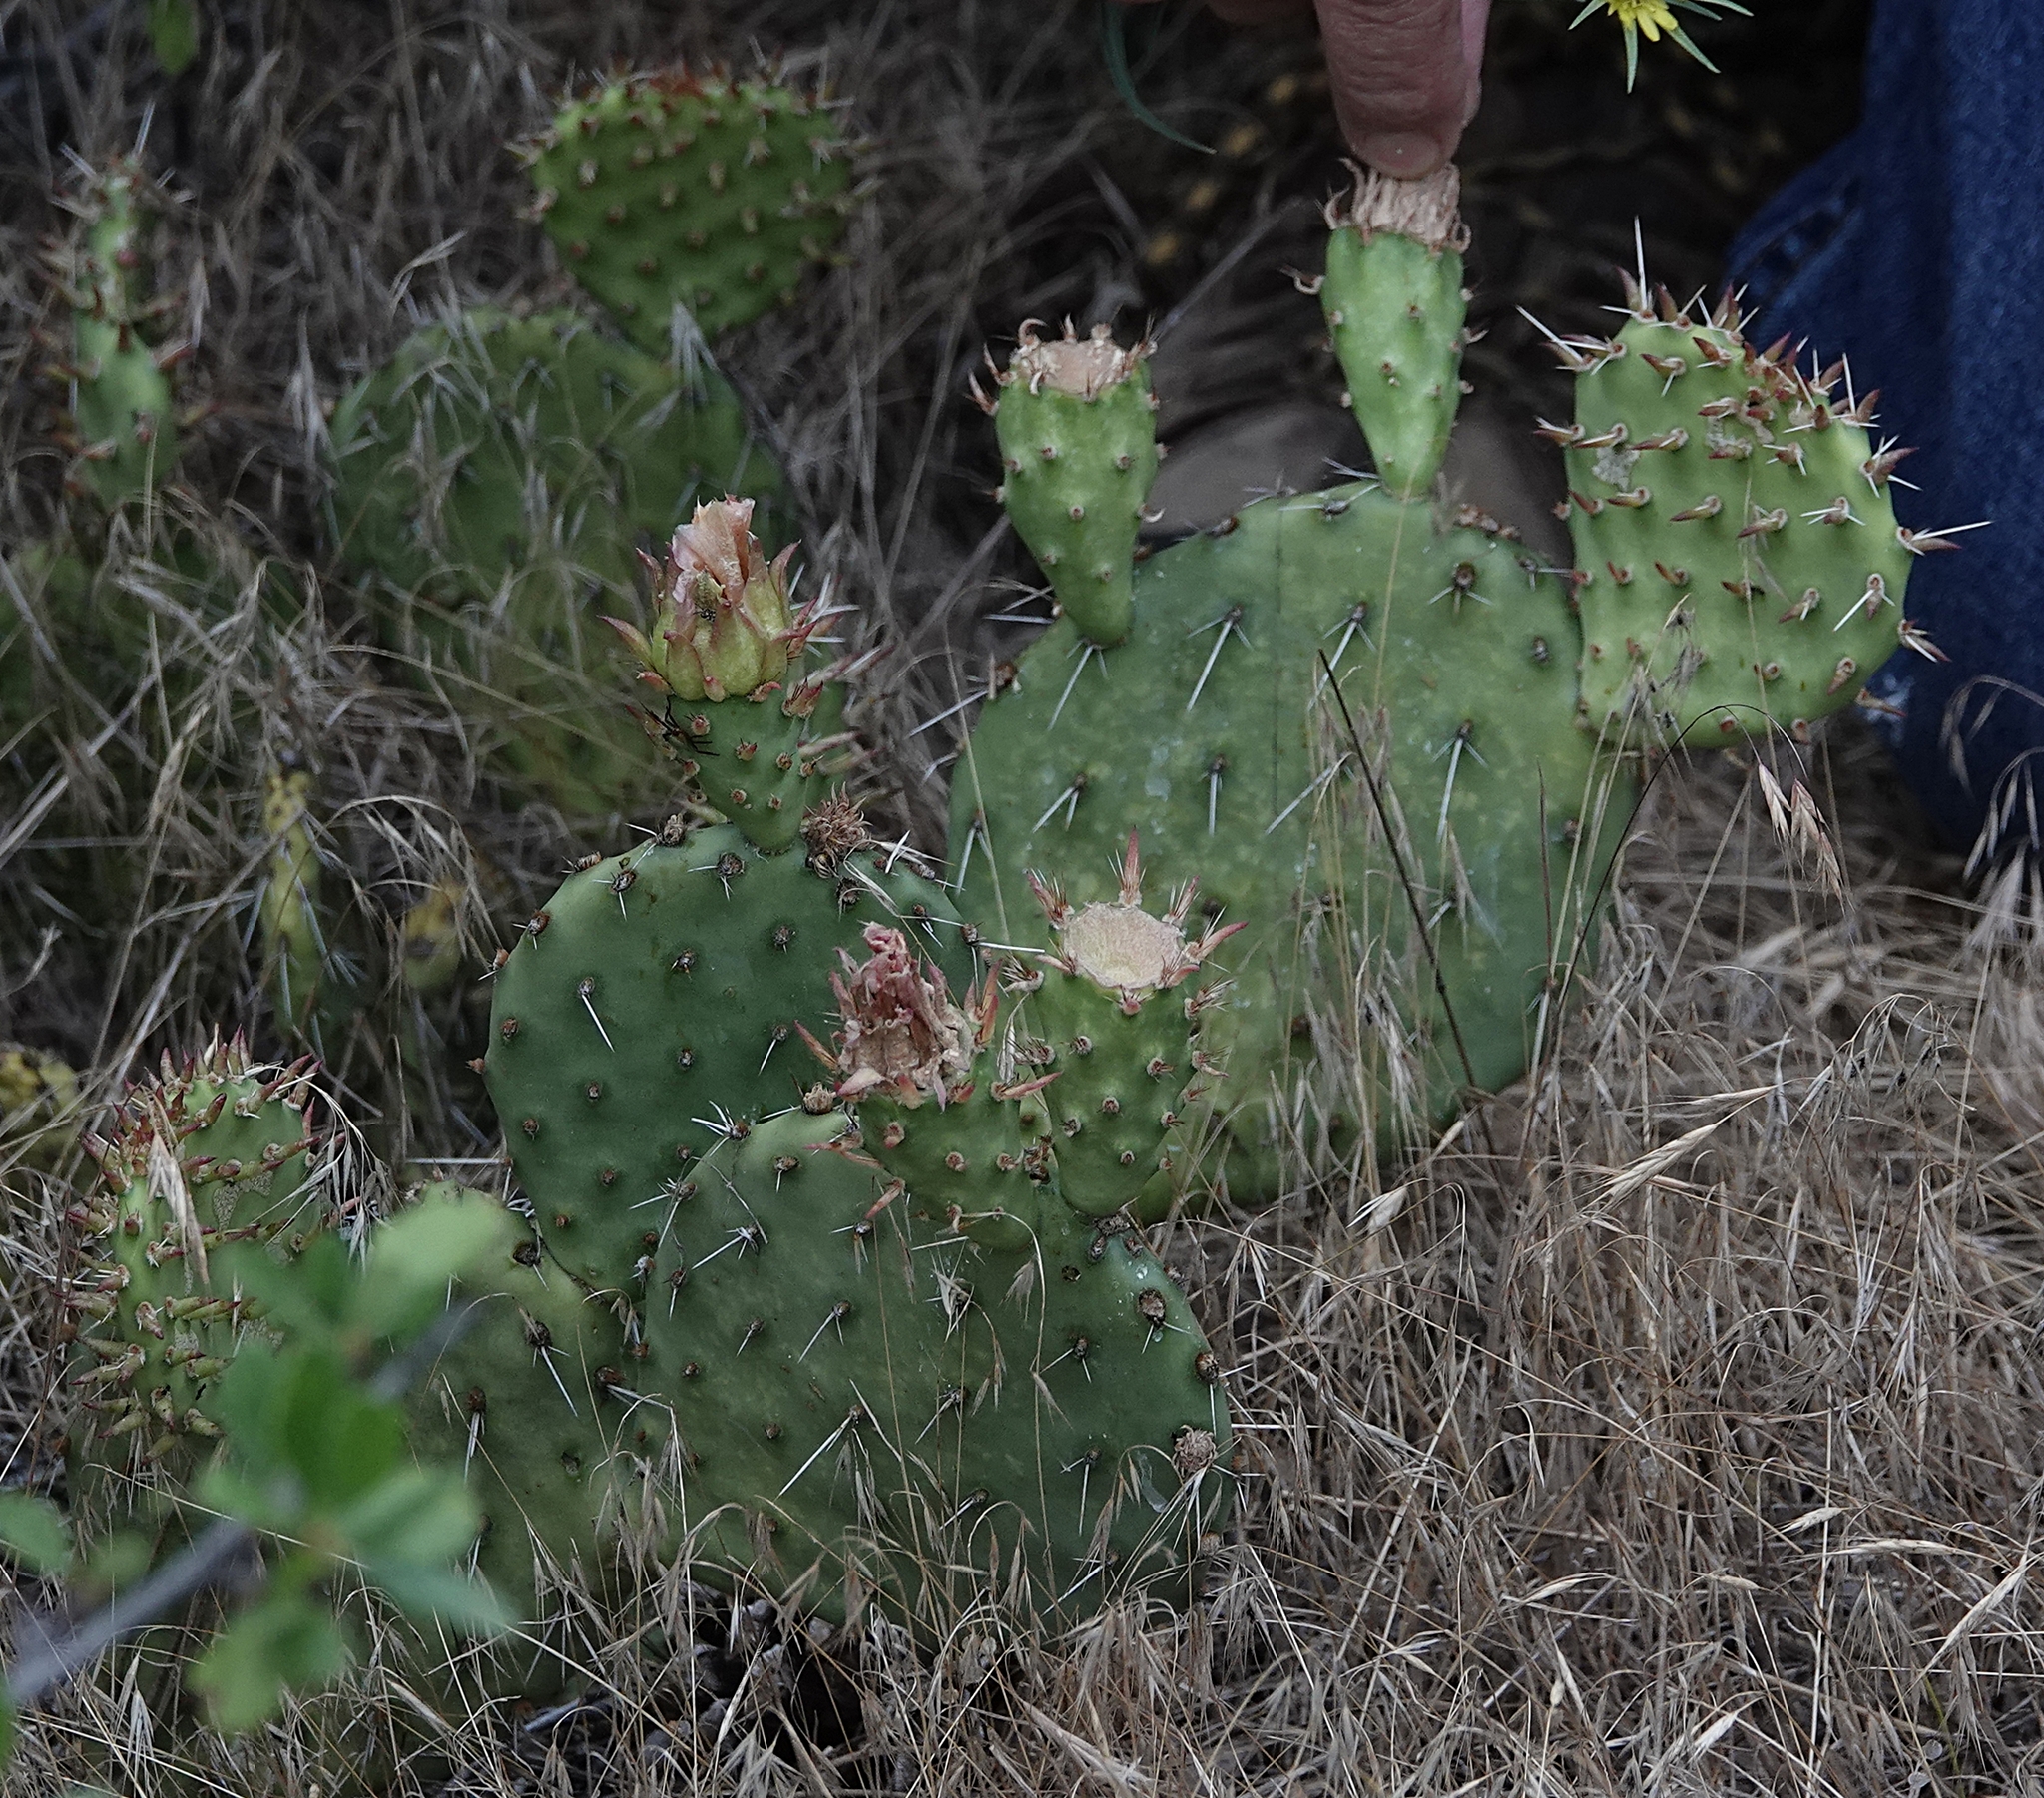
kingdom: Plantae
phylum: Tracheophyta
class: Magnoliopsida
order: Caryophyllales
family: Cactaceae
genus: Opuntia
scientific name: Opuntia cymochila
